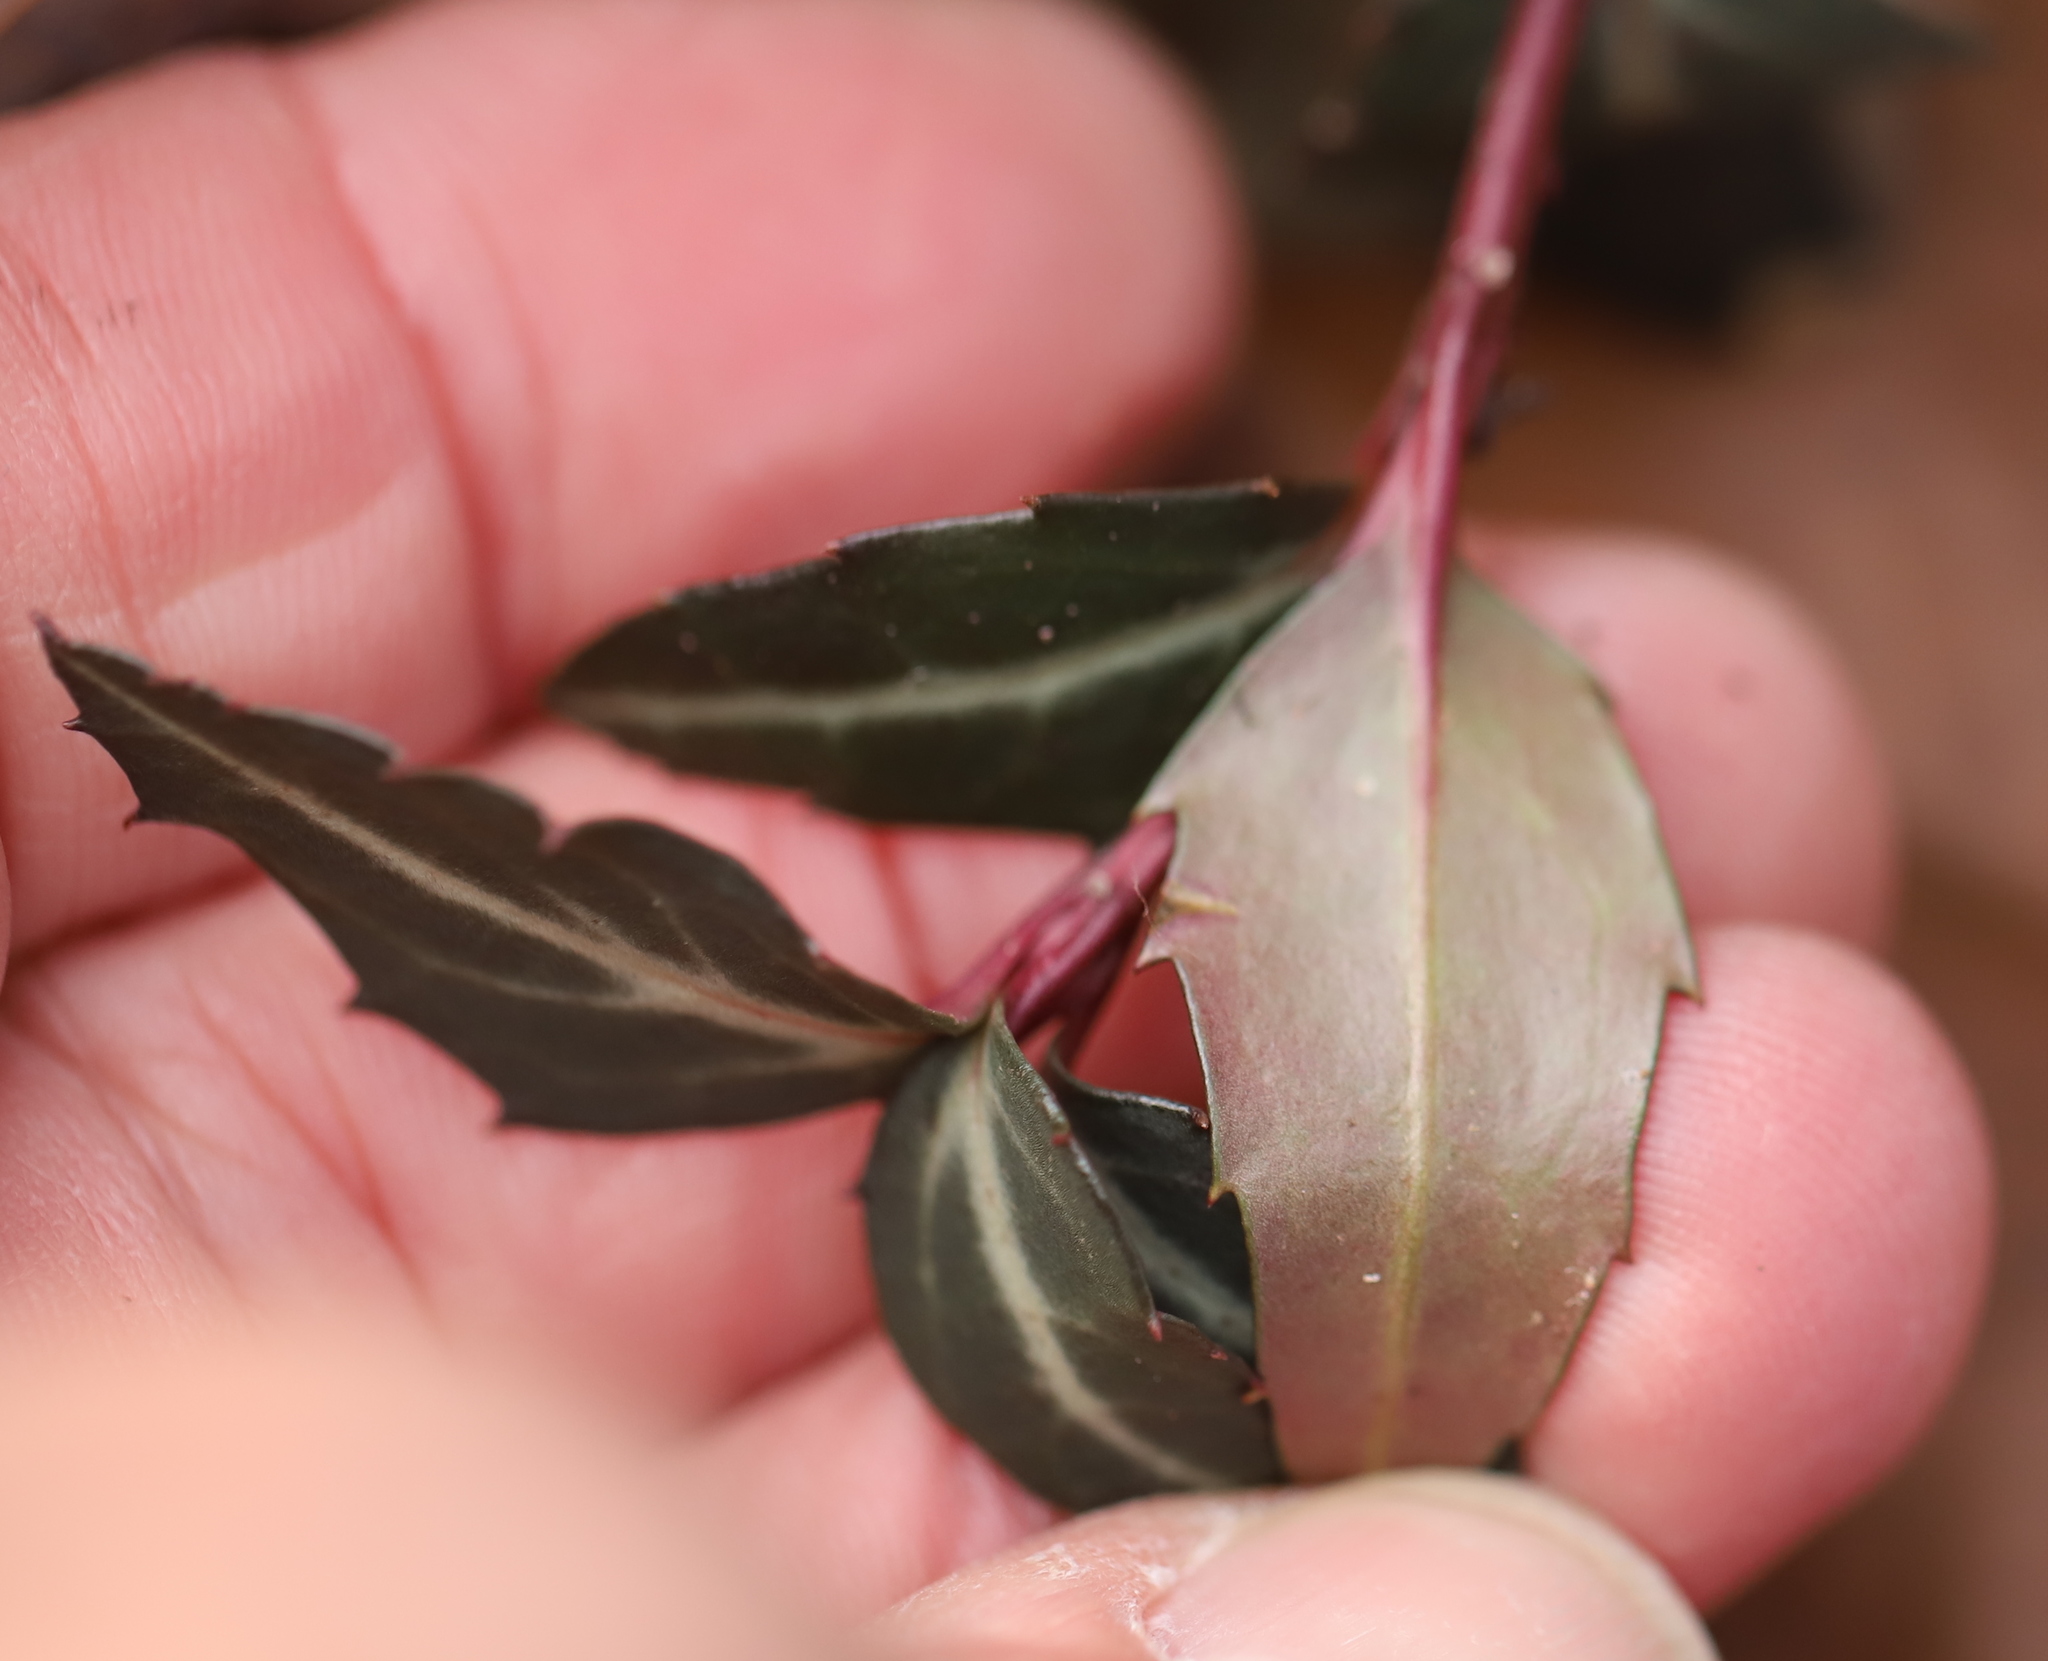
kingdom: Plantae
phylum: Tracheophyta
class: Magnoliopsida
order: Ericales
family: Ericaceae
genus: Chimaphila
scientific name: Chimaphila maculata
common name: Spotted pipsissewa
